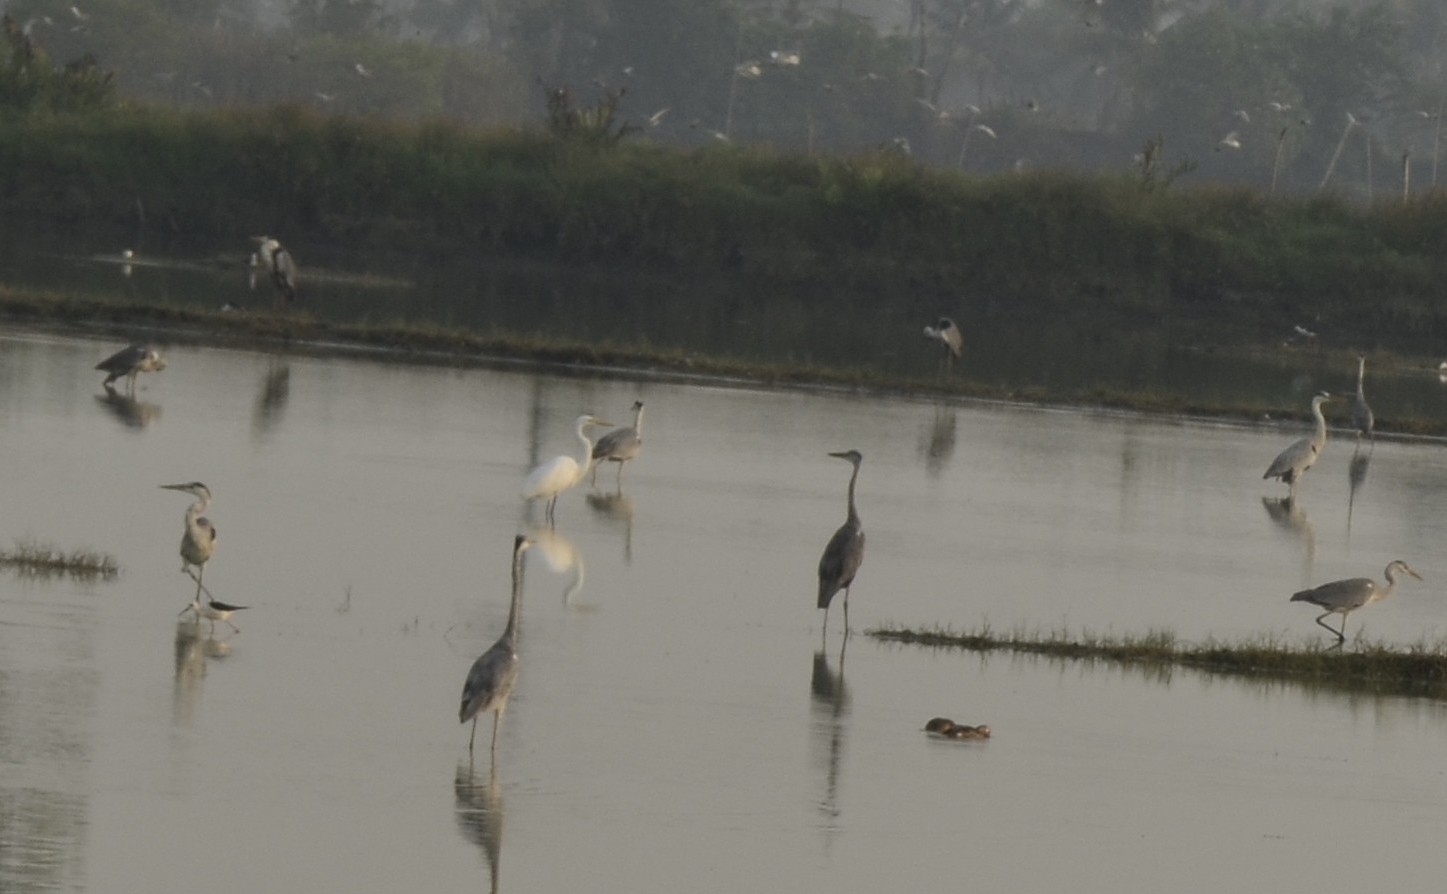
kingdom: Animalia
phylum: Chordata
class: Aves
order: Pelecaniformes
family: Ardeidae
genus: Ardea
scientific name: Ardea cinerea
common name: Grey heron
